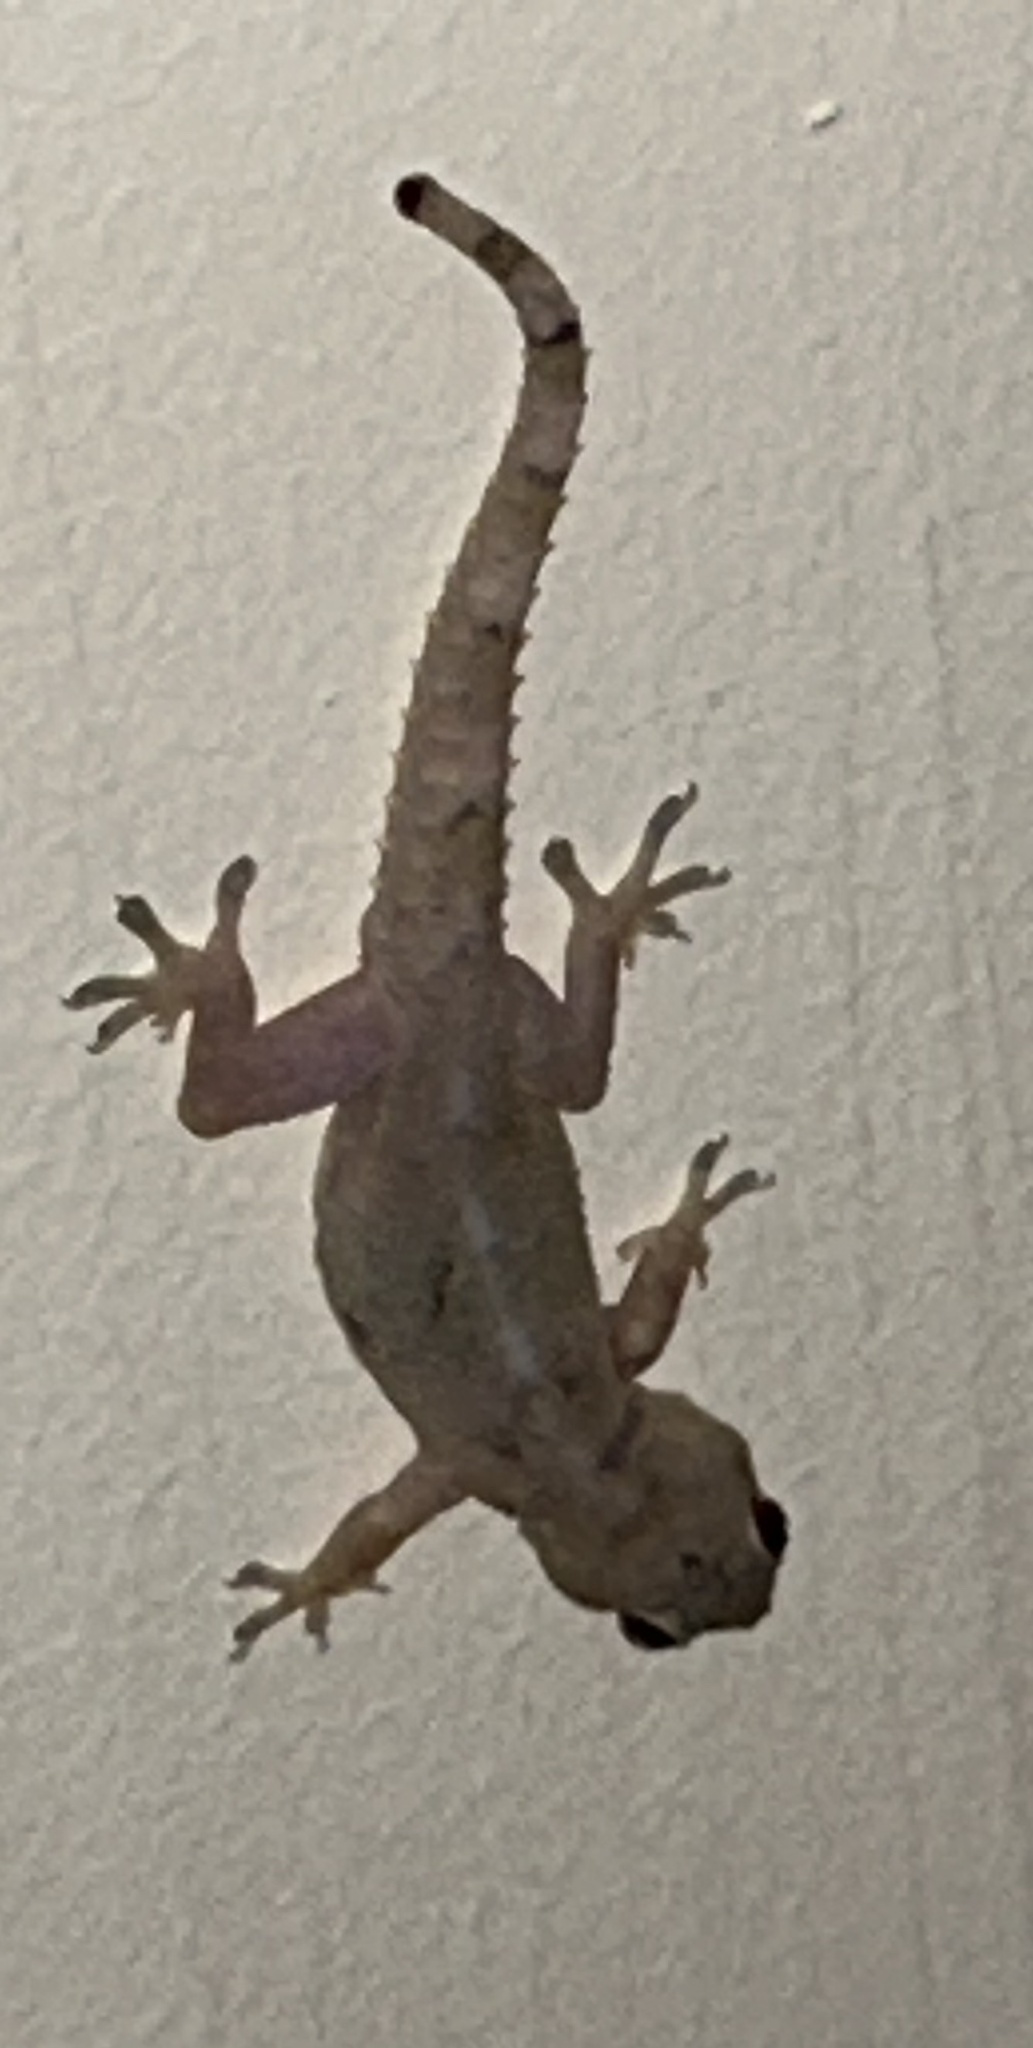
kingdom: Animalia
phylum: Chordata
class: Squamata
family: Gekkonidae
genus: Hemidactylus
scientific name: Hemidactylus mabouia
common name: House gecko
